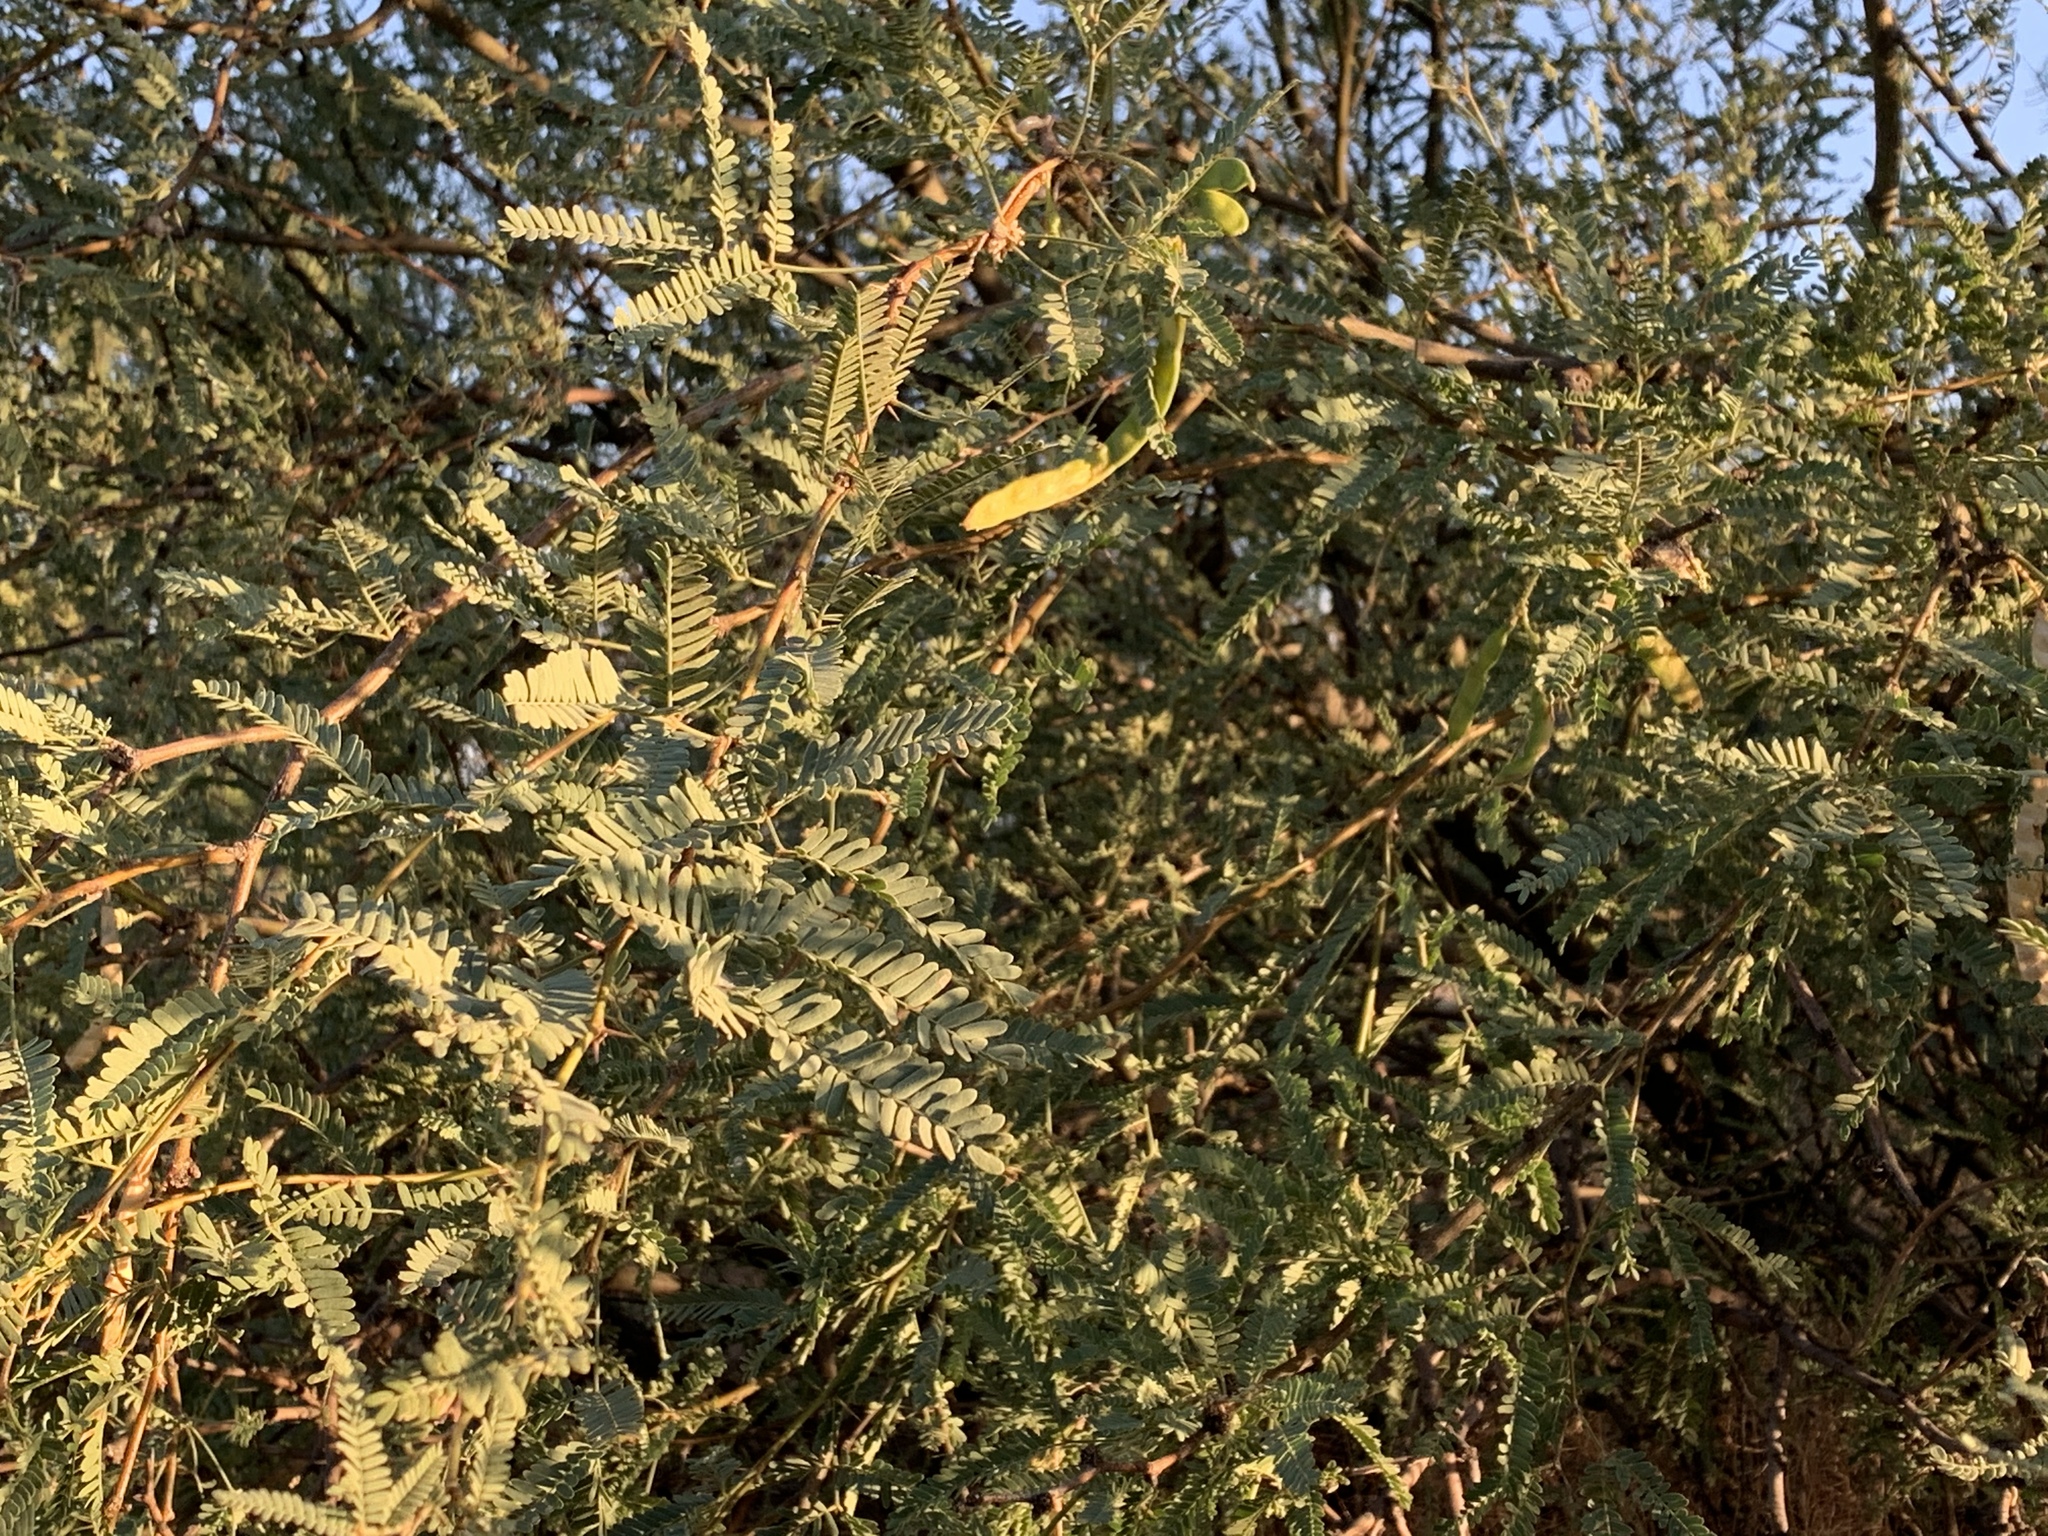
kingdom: Plantae
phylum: Tracheophyta
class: Magnoliopsida
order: Fabales
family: Fabaceae
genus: Prosopis
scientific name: Prosopis velutina
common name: Velvet mesquite
